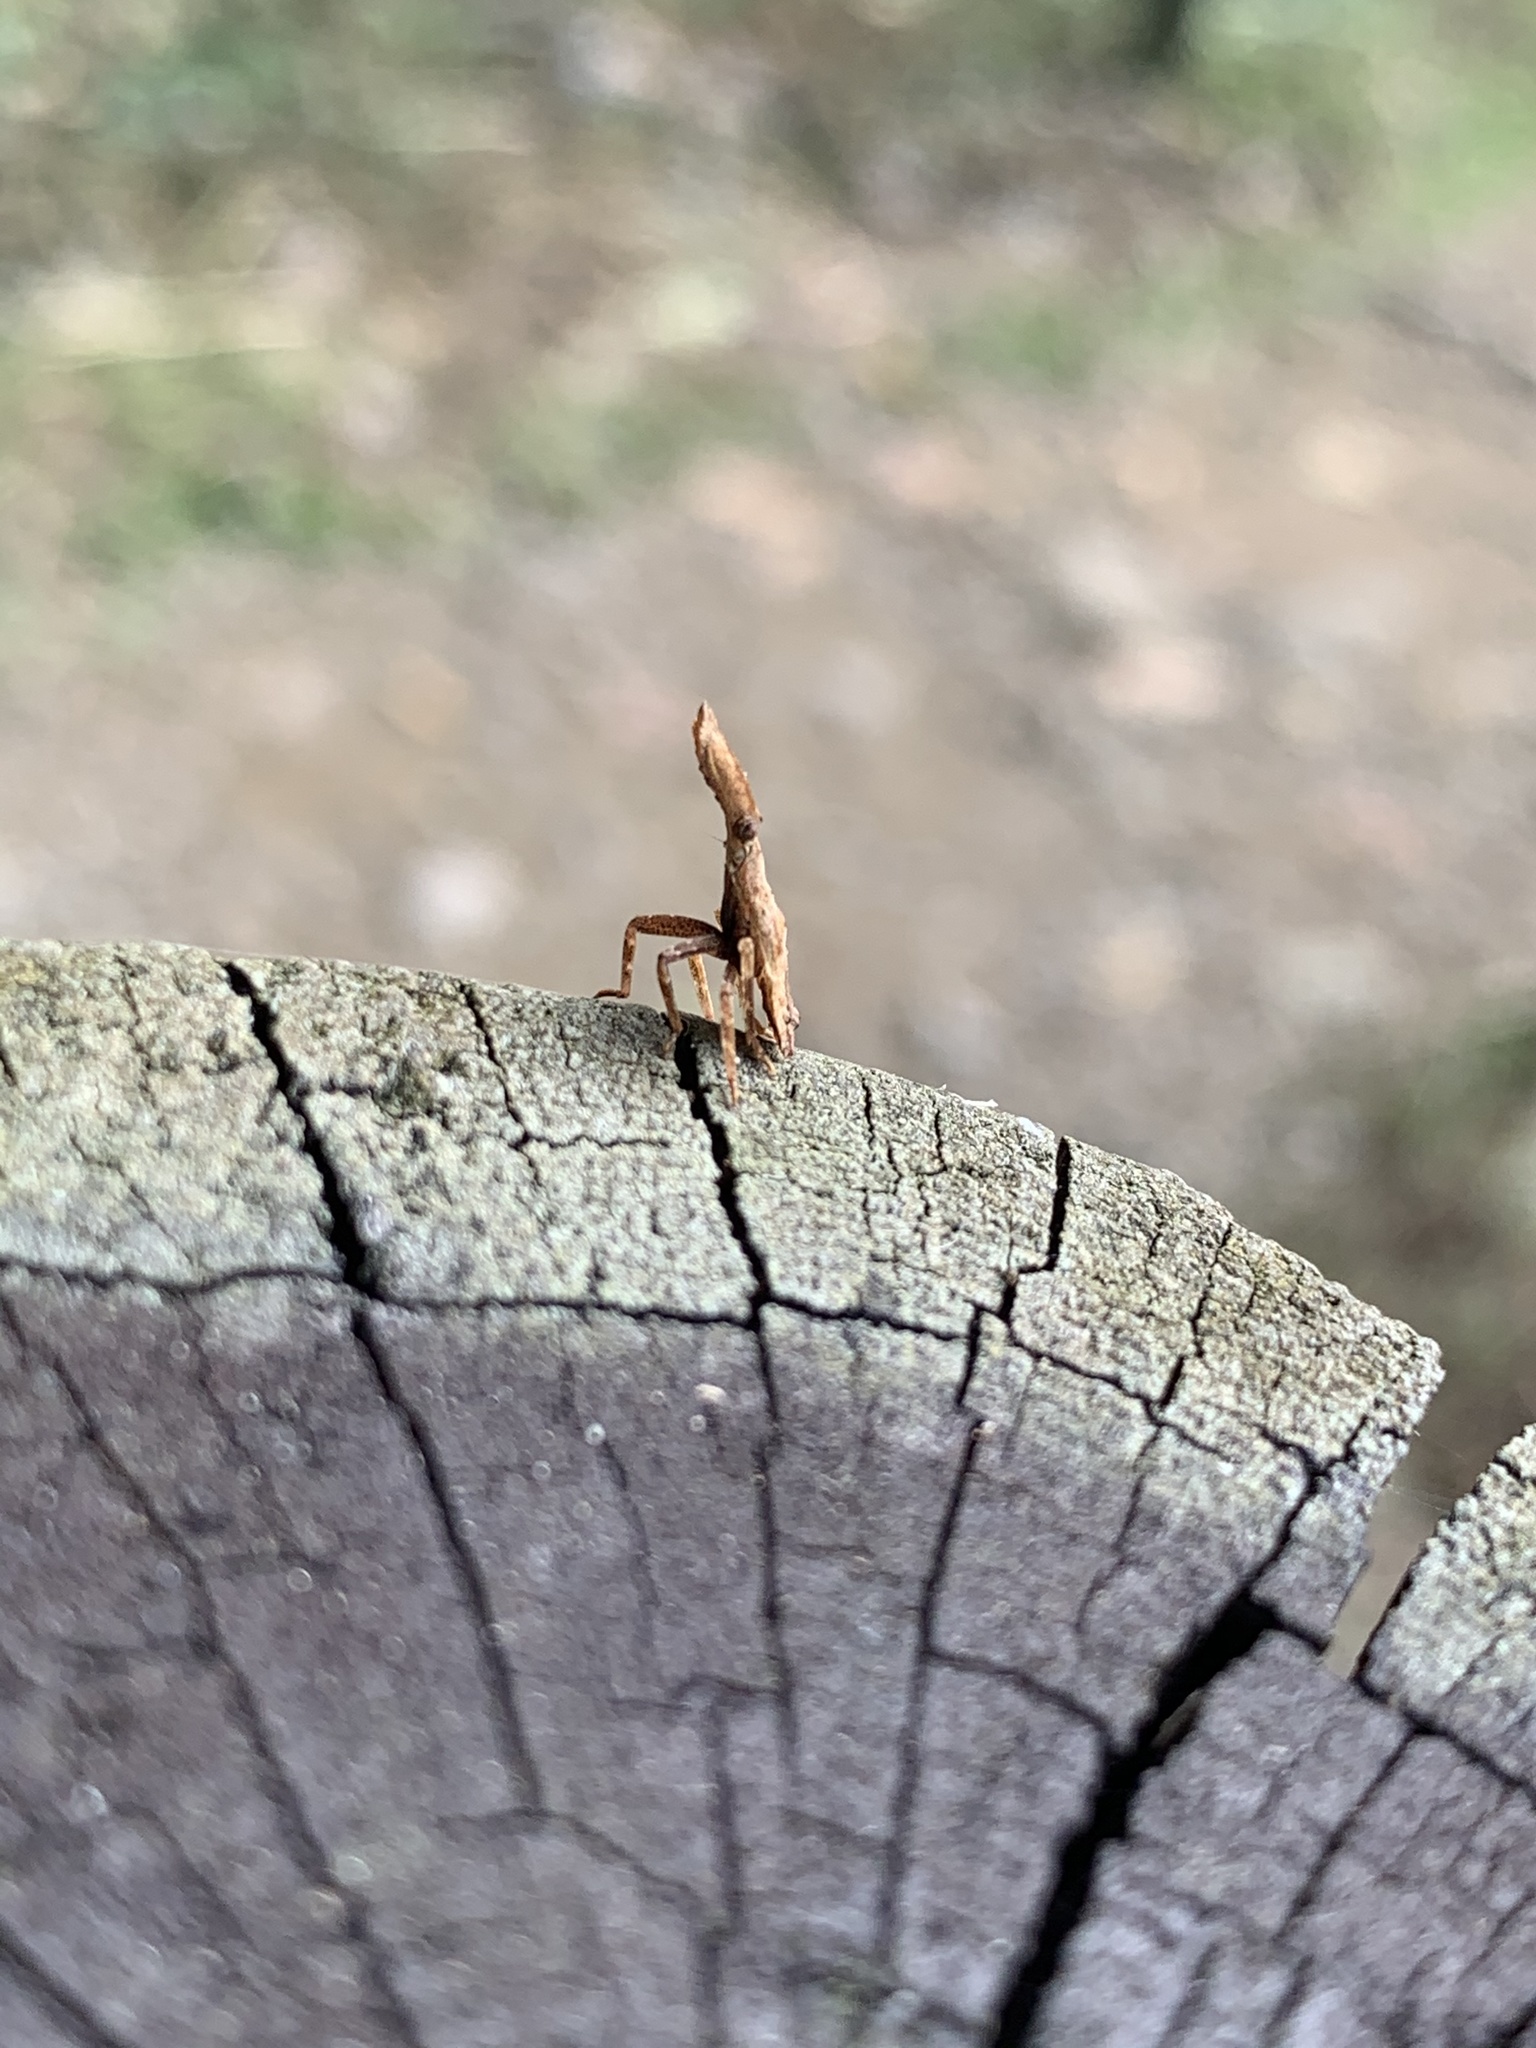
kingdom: Animalia
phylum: Arthropoda
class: Insecta
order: Hemiptera
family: Fulgoridae
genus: Pyrops
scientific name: Pyrops watanabei
